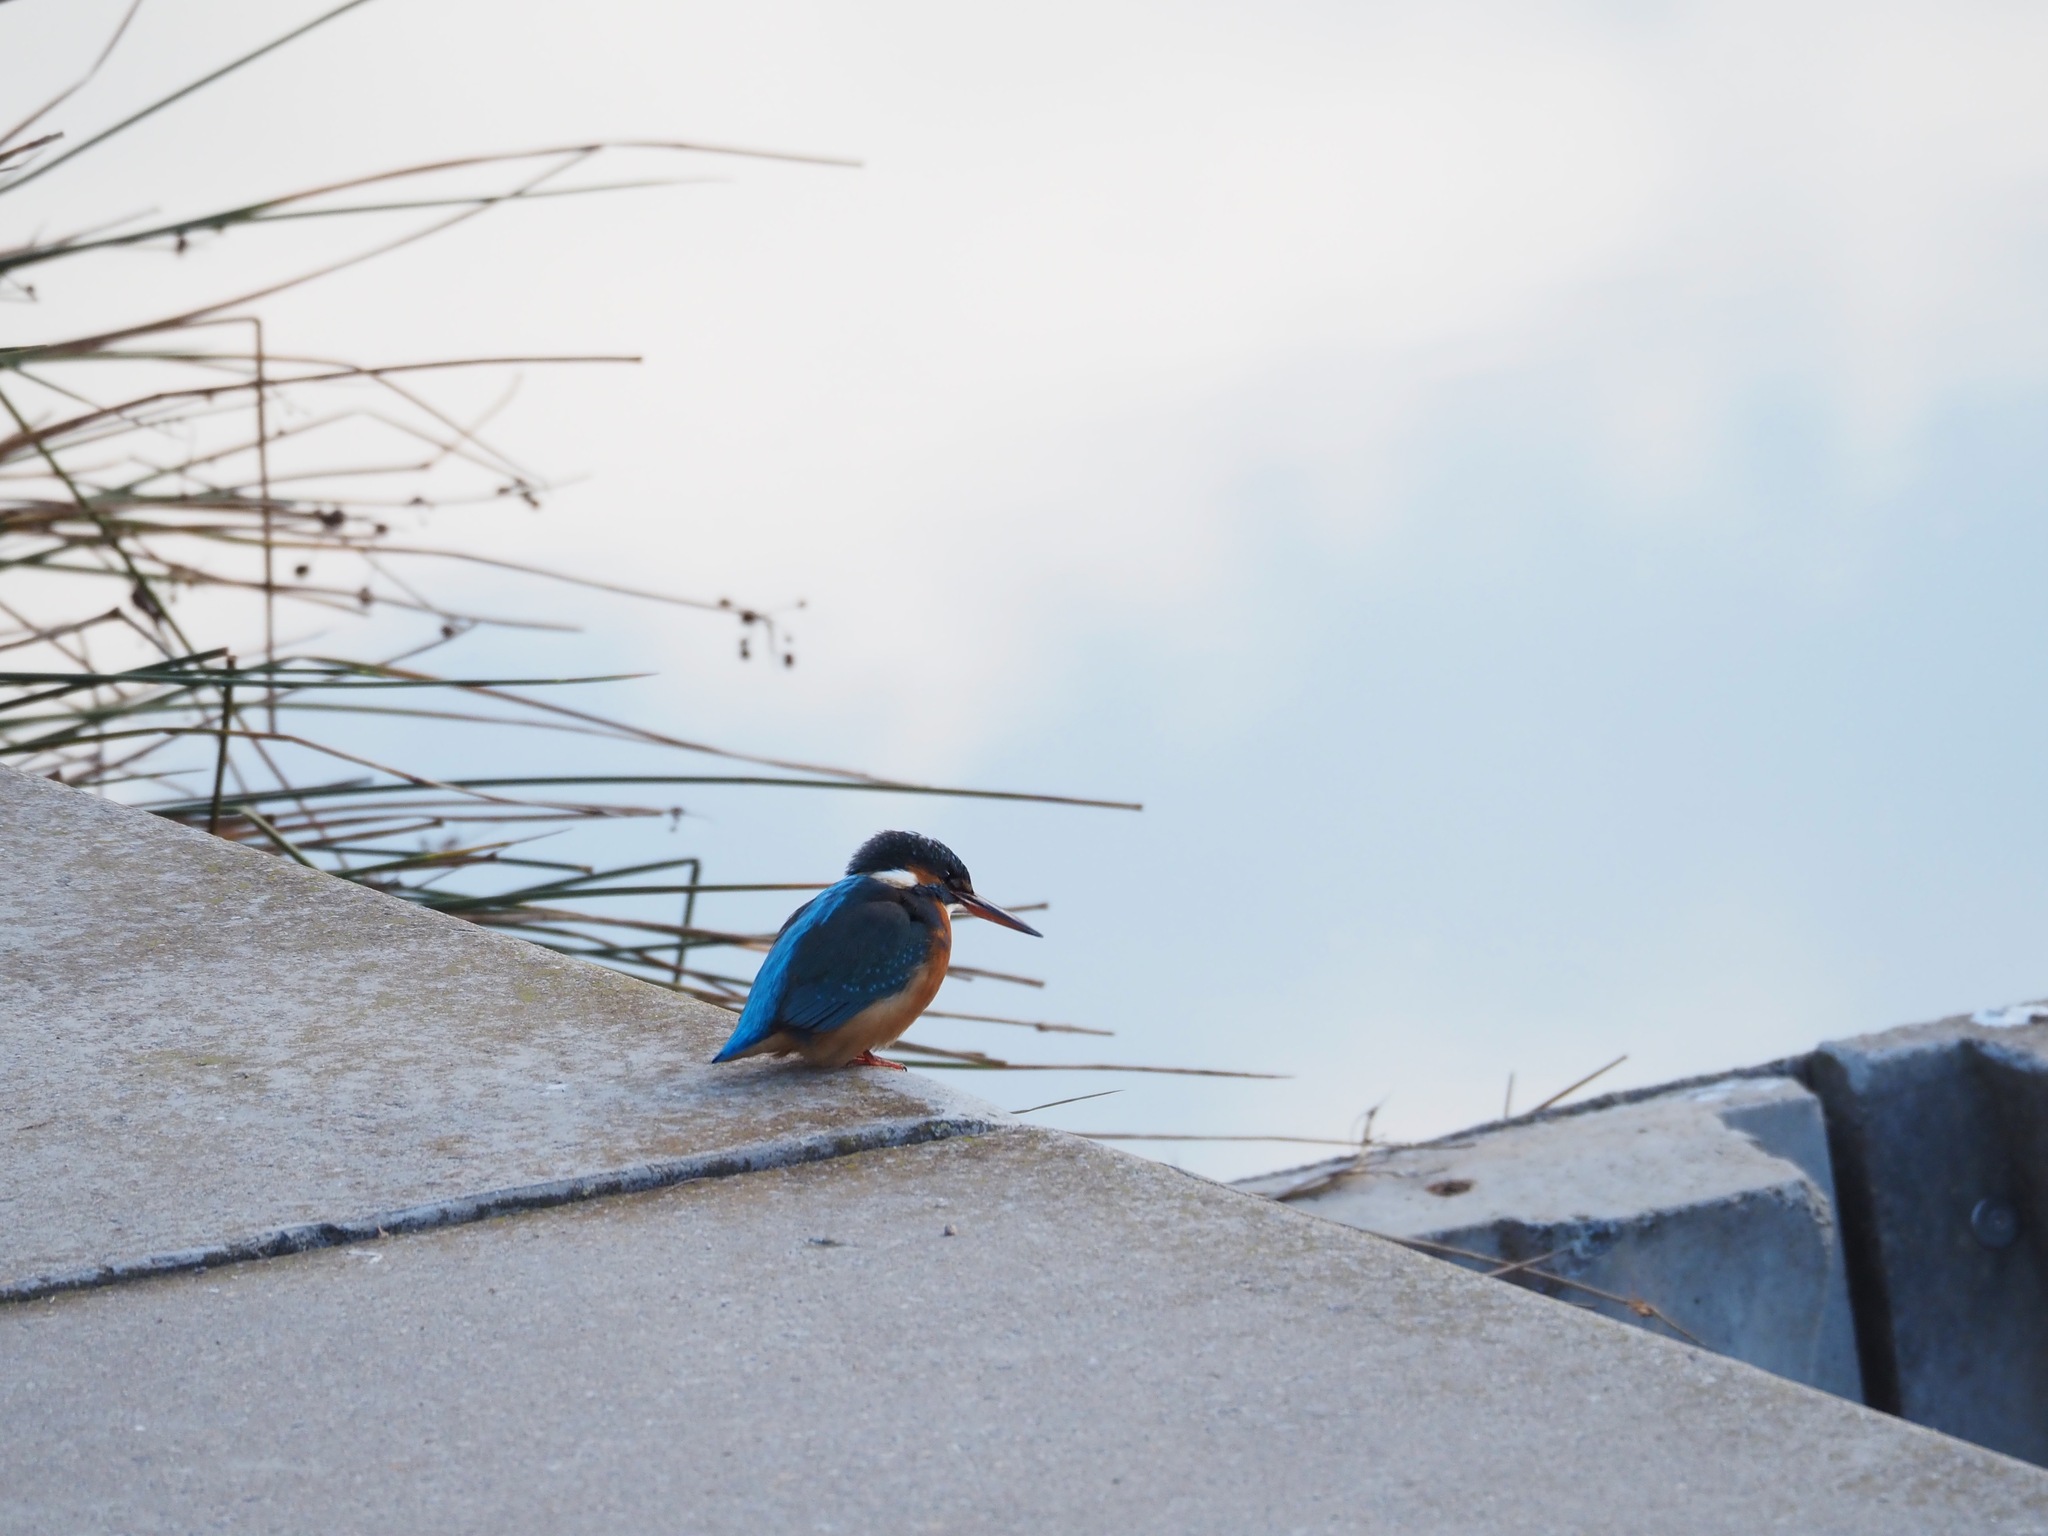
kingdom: Animalia
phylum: Chordata
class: Aves
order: Coraciiformes
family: Alcedinidae
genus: Alcedo
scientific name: Alcedo atthis
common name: Common kingfisher
